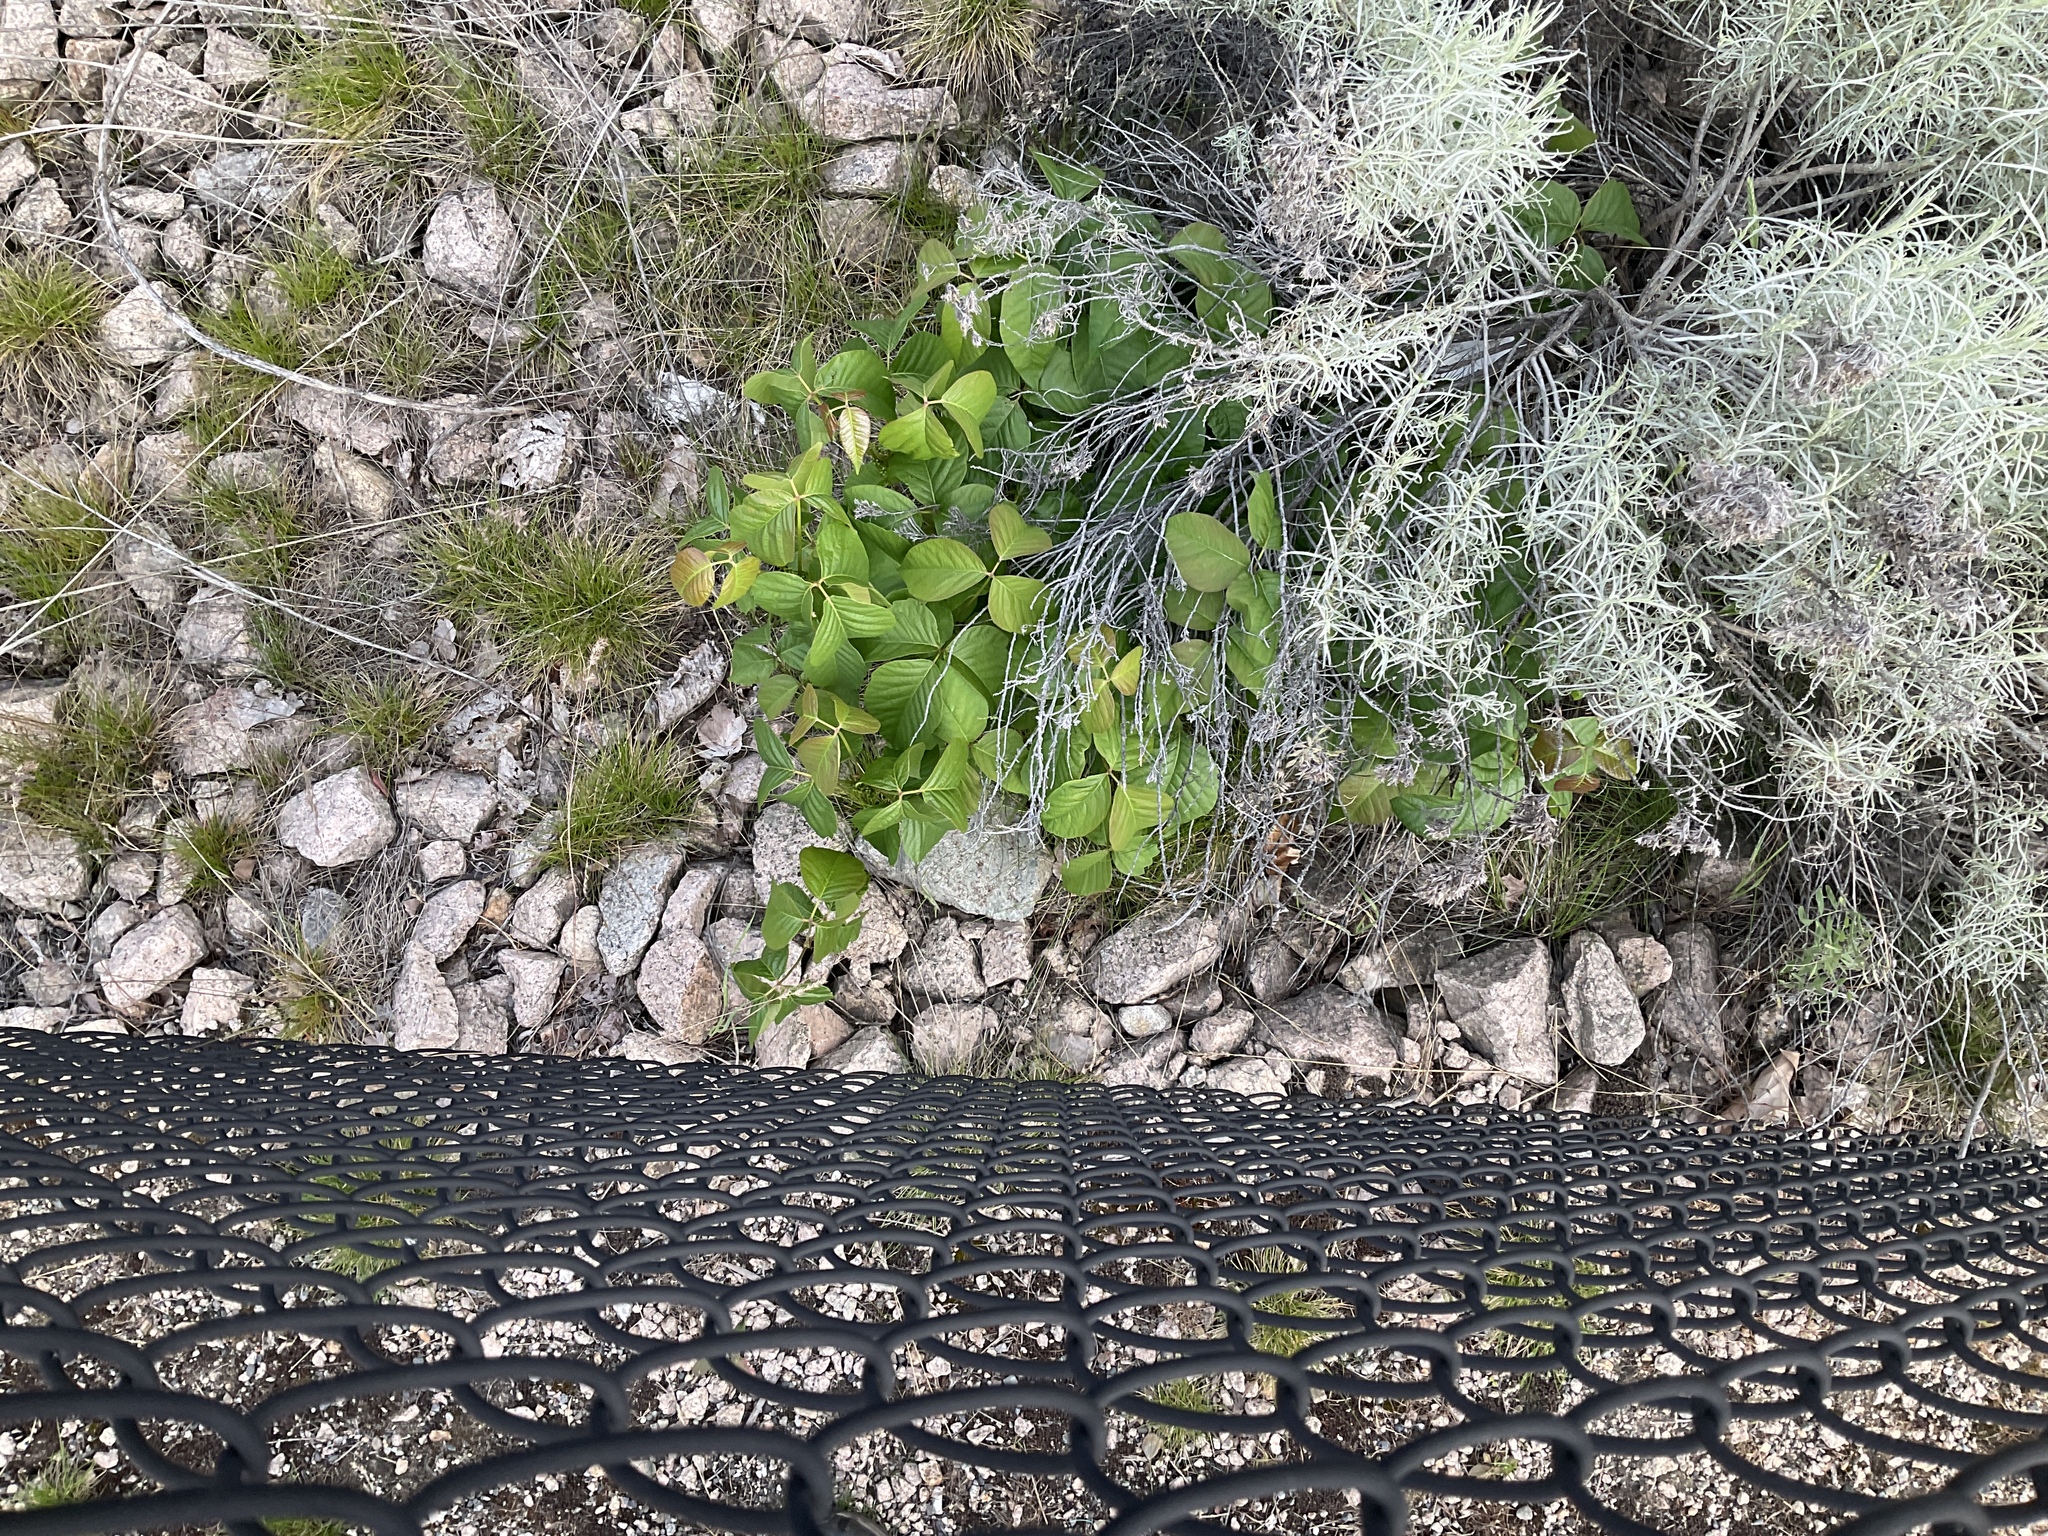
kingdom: Plantae
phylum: Tracheophyta
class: Magnoliopsida
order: Sapindales
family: Anacardiaceae
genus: Toxicodendron
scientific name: Toxicodendron rydbergii
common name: Rydberg's poison-ivy
